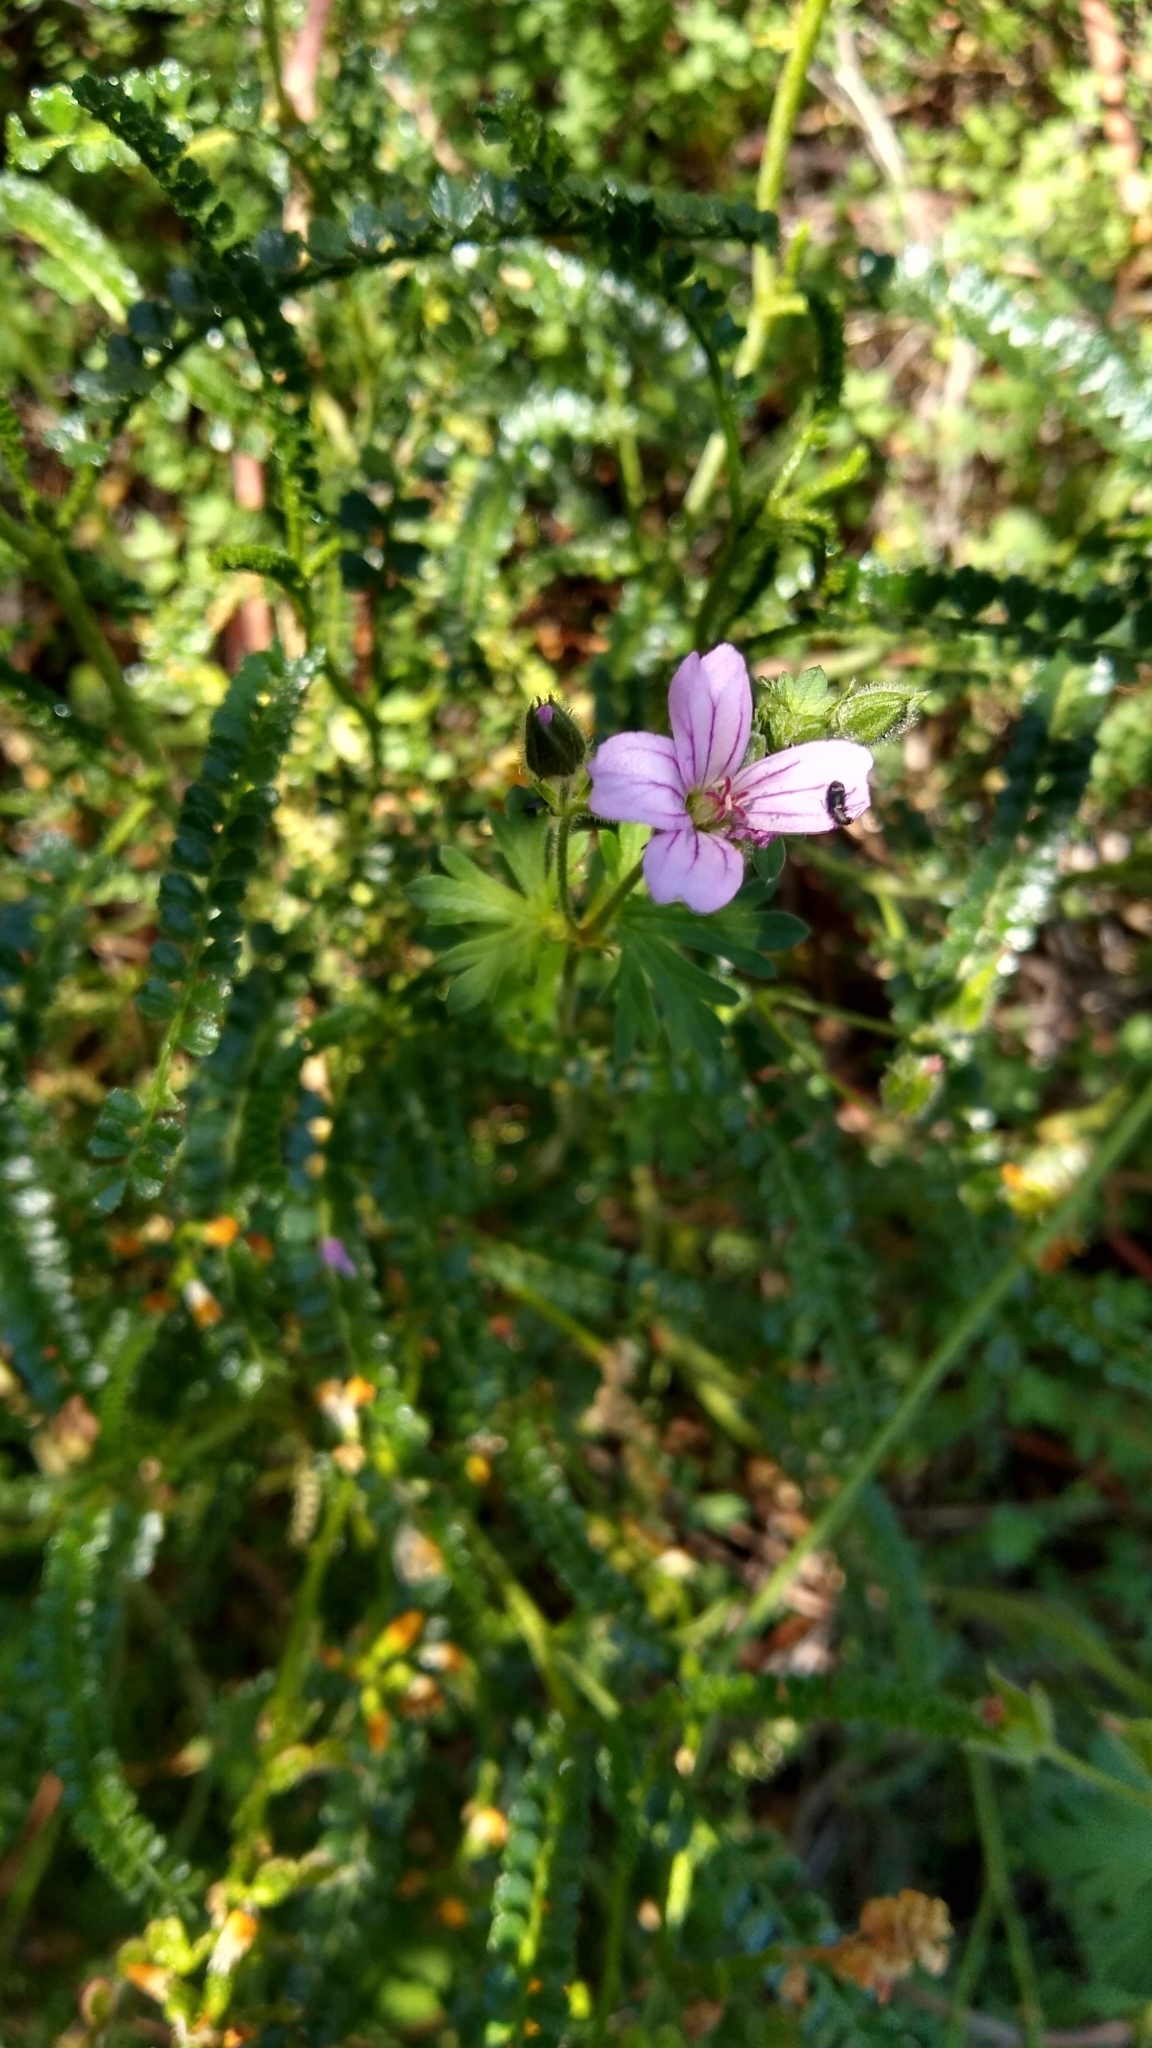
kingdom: Plantae
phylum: Tracheophyta
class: Magnoliopsida
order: Geraniales
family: Geraniaceae
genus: Geranium
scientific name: Geranium sessiliflorum
